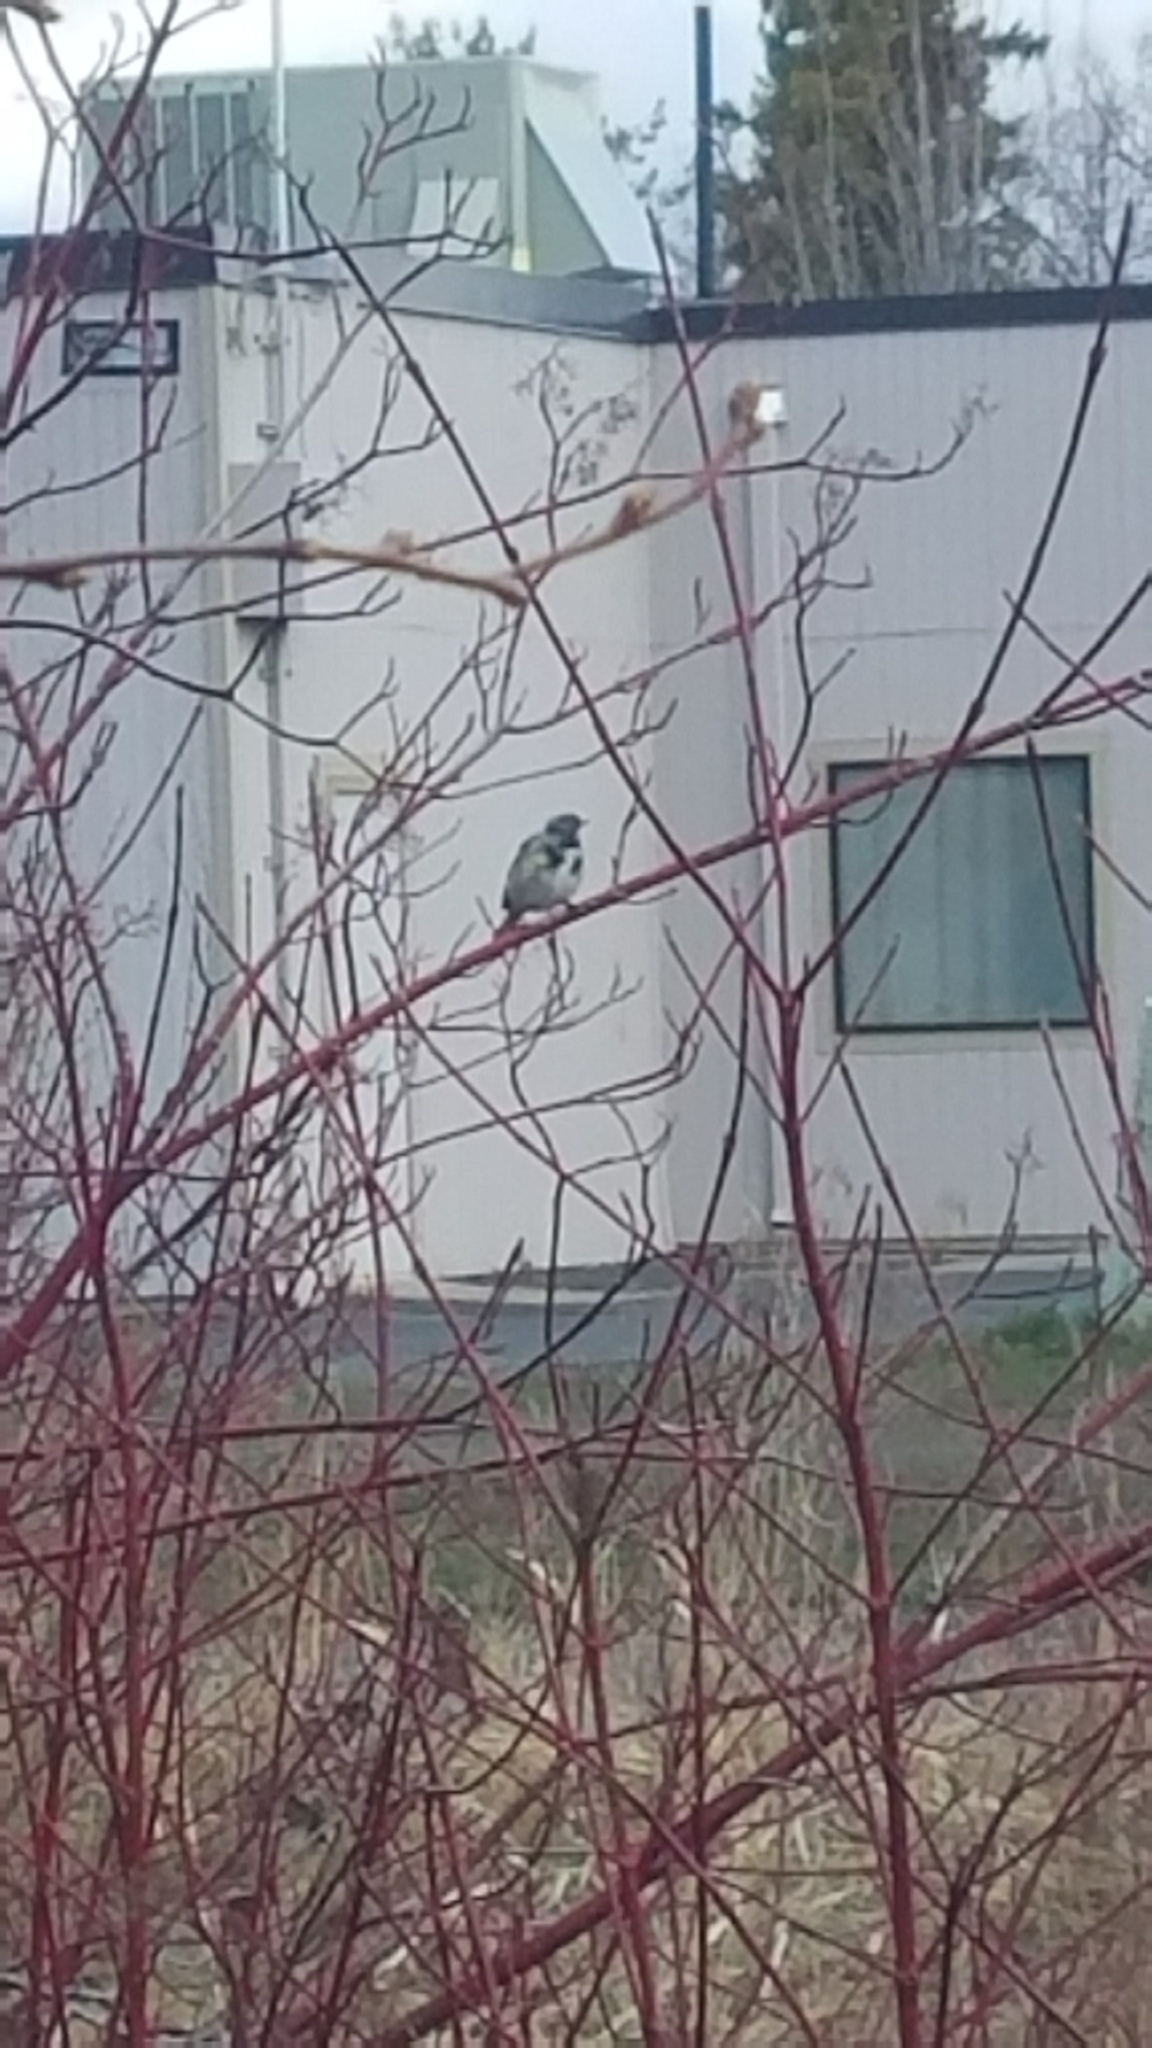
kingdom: Animalia
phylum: Chordata
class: Aves
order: Passeriformes
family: Parulidae
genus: Setophaga
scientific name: Setophaga coronata
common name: Myrtle warbler
